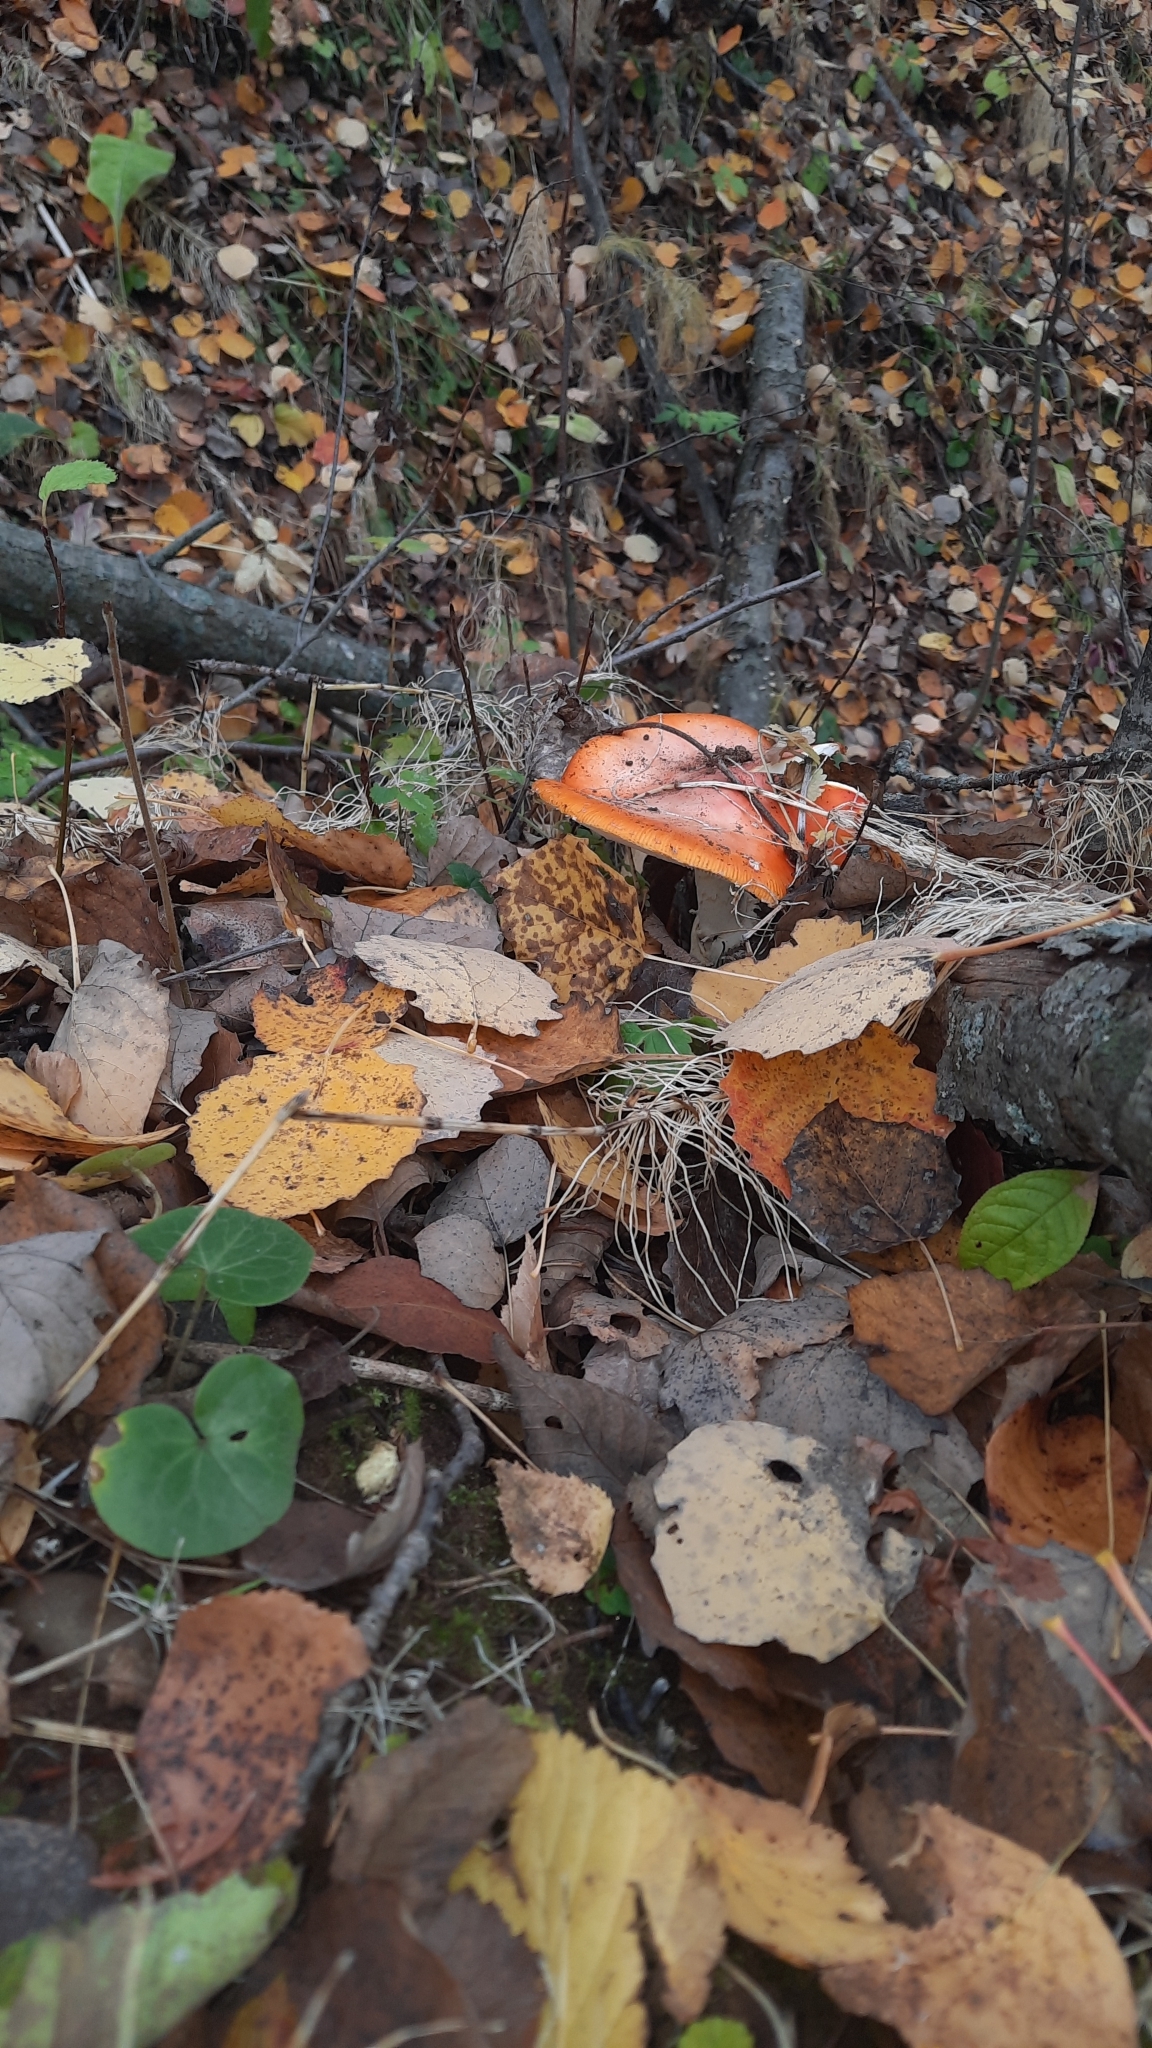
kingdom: Fungi
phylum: Basidiomycota
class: Agaricomycetes
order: Agaricales
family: Amanitaceae
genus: Amanita
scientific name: Amanita muscaria
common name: Fly agaric
